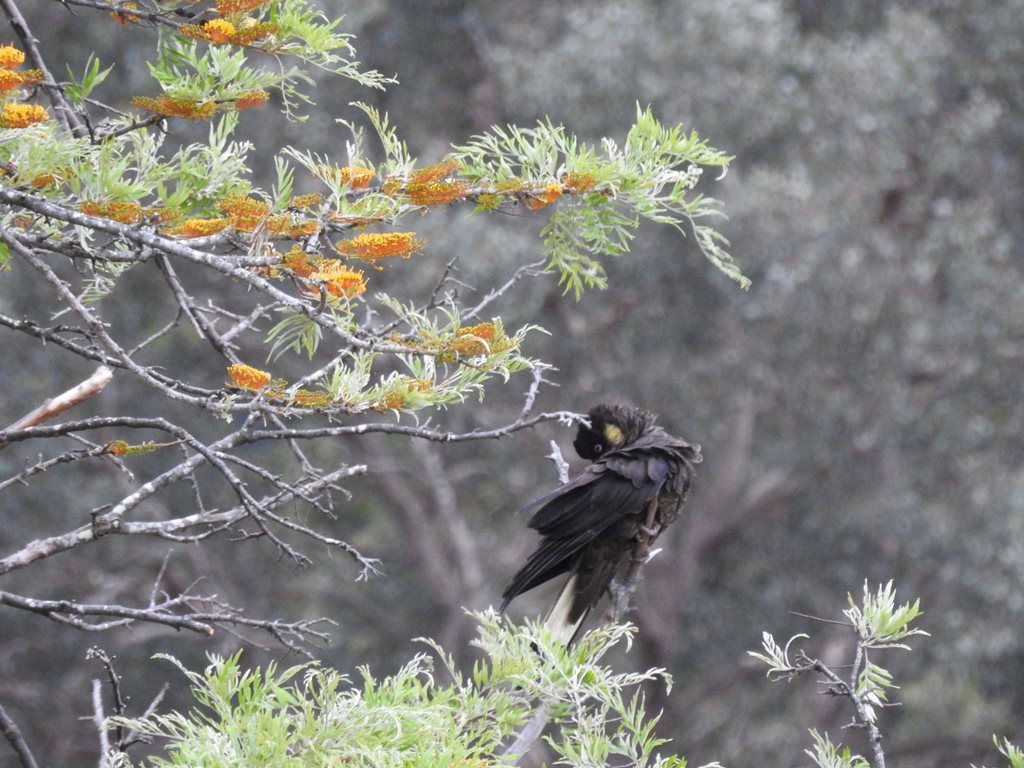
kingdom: Animalia
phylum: Chordata
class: Aves
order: Psittaciformes
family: Cacatuidae
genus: Zanda
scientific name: Zanda funerea
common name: Yellow-tailed black-cockatoo
